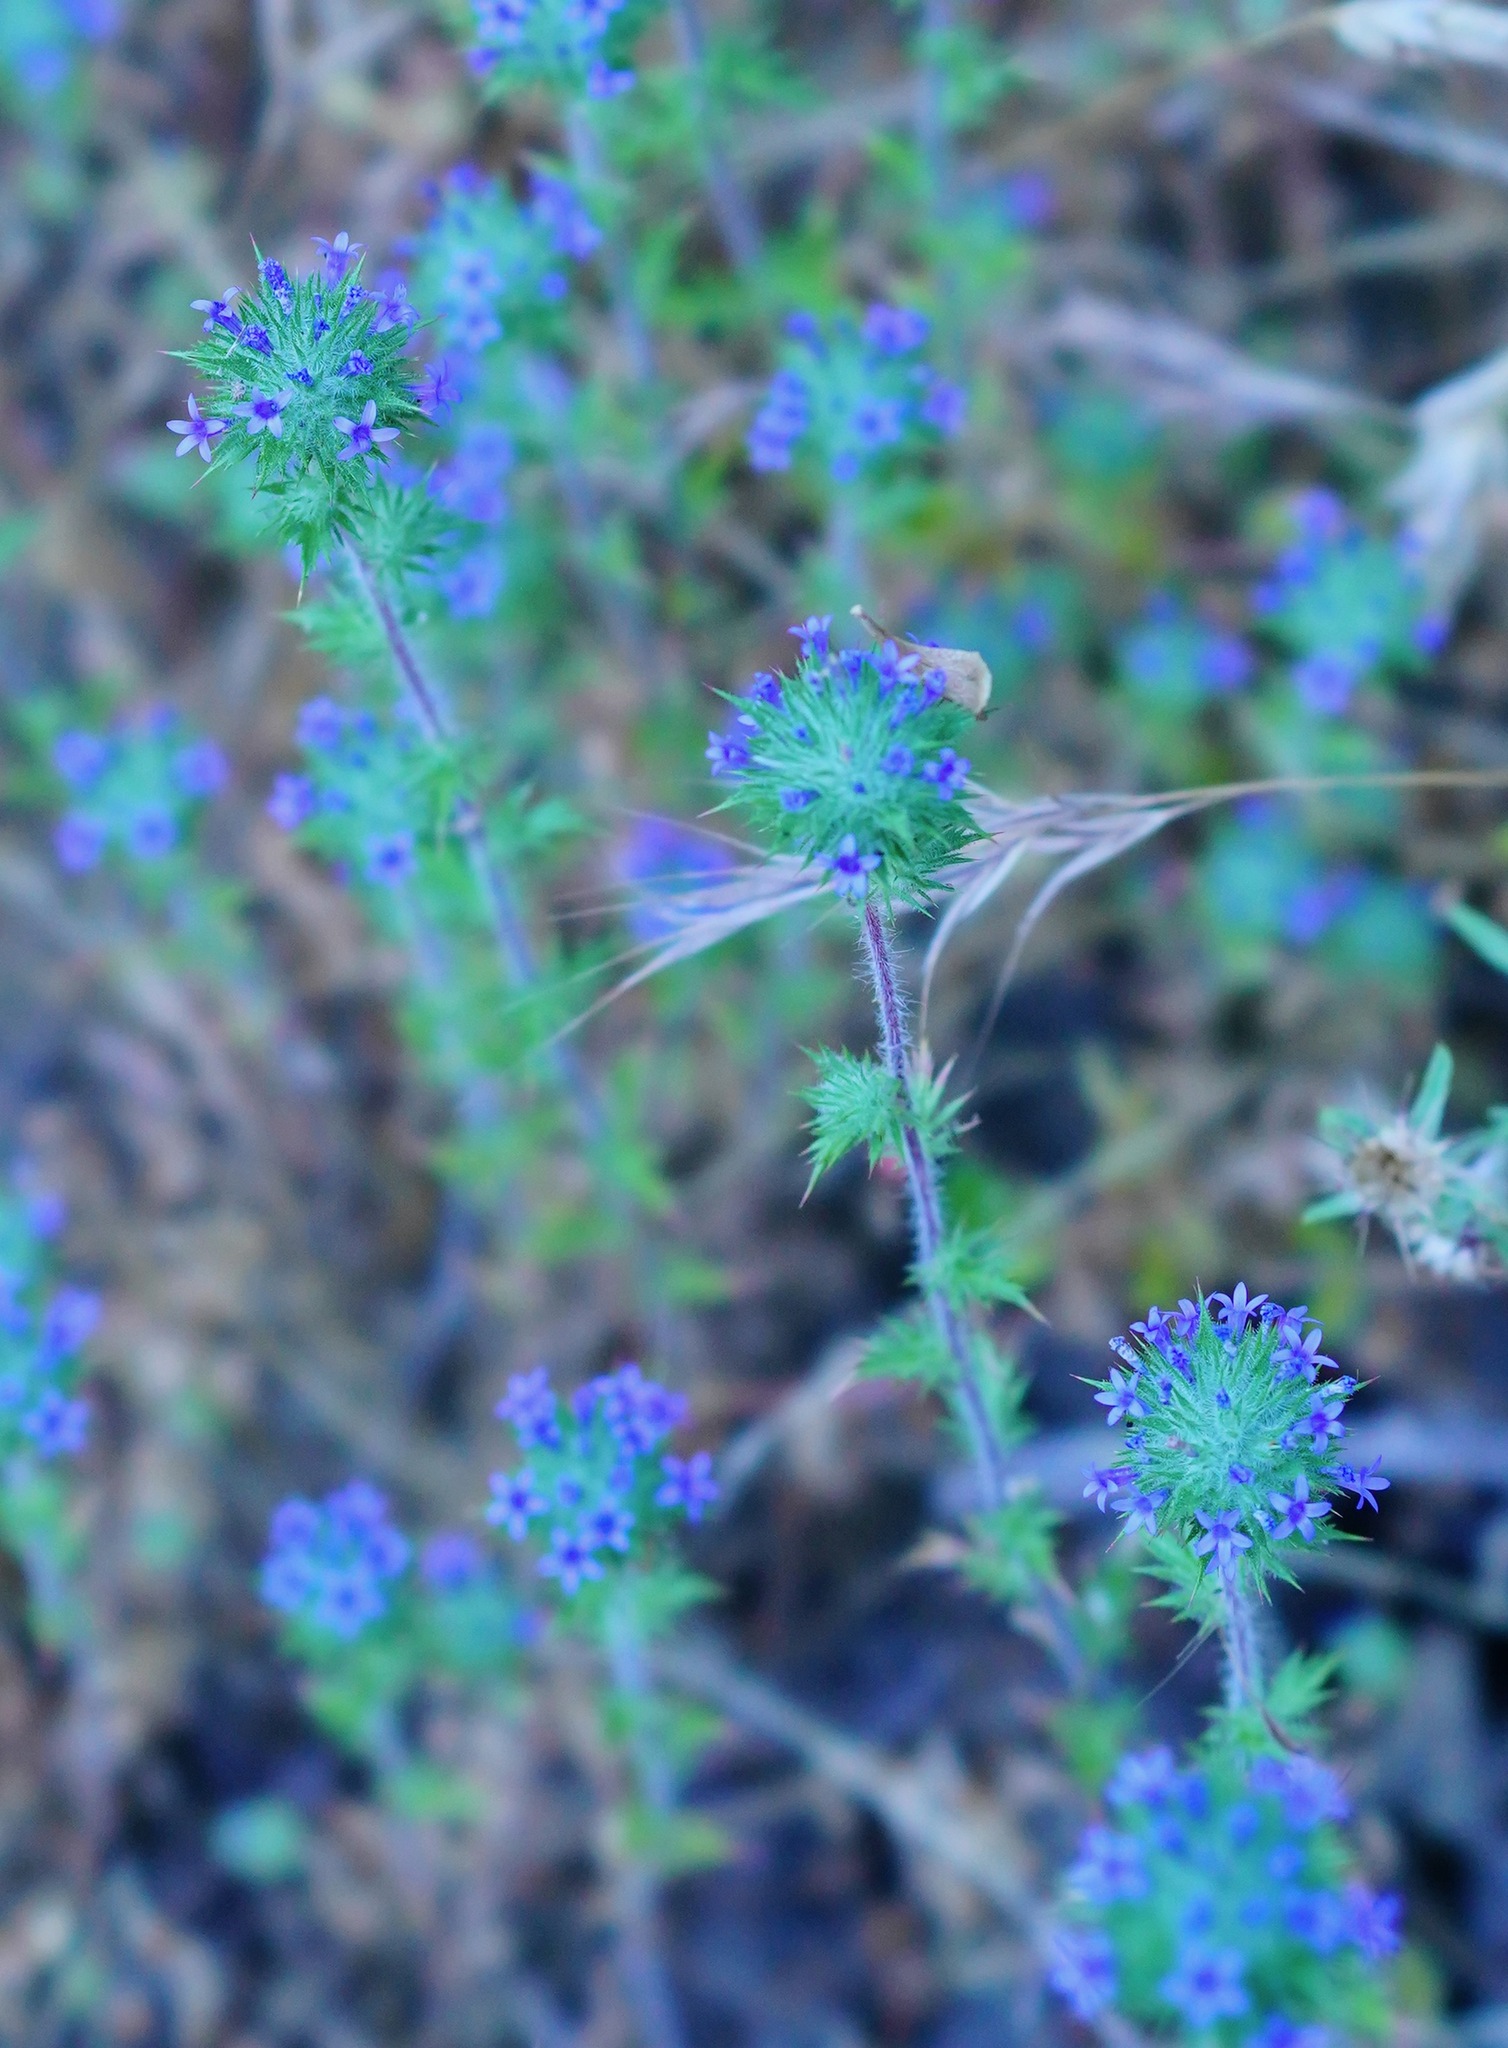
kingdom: Plantae
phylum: Tracheophyta
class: Magnoliopsida
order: Ericales
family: Polemoniaceae
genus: Navarretia
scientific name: Navarretia squarrosa
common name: Skunkweed
